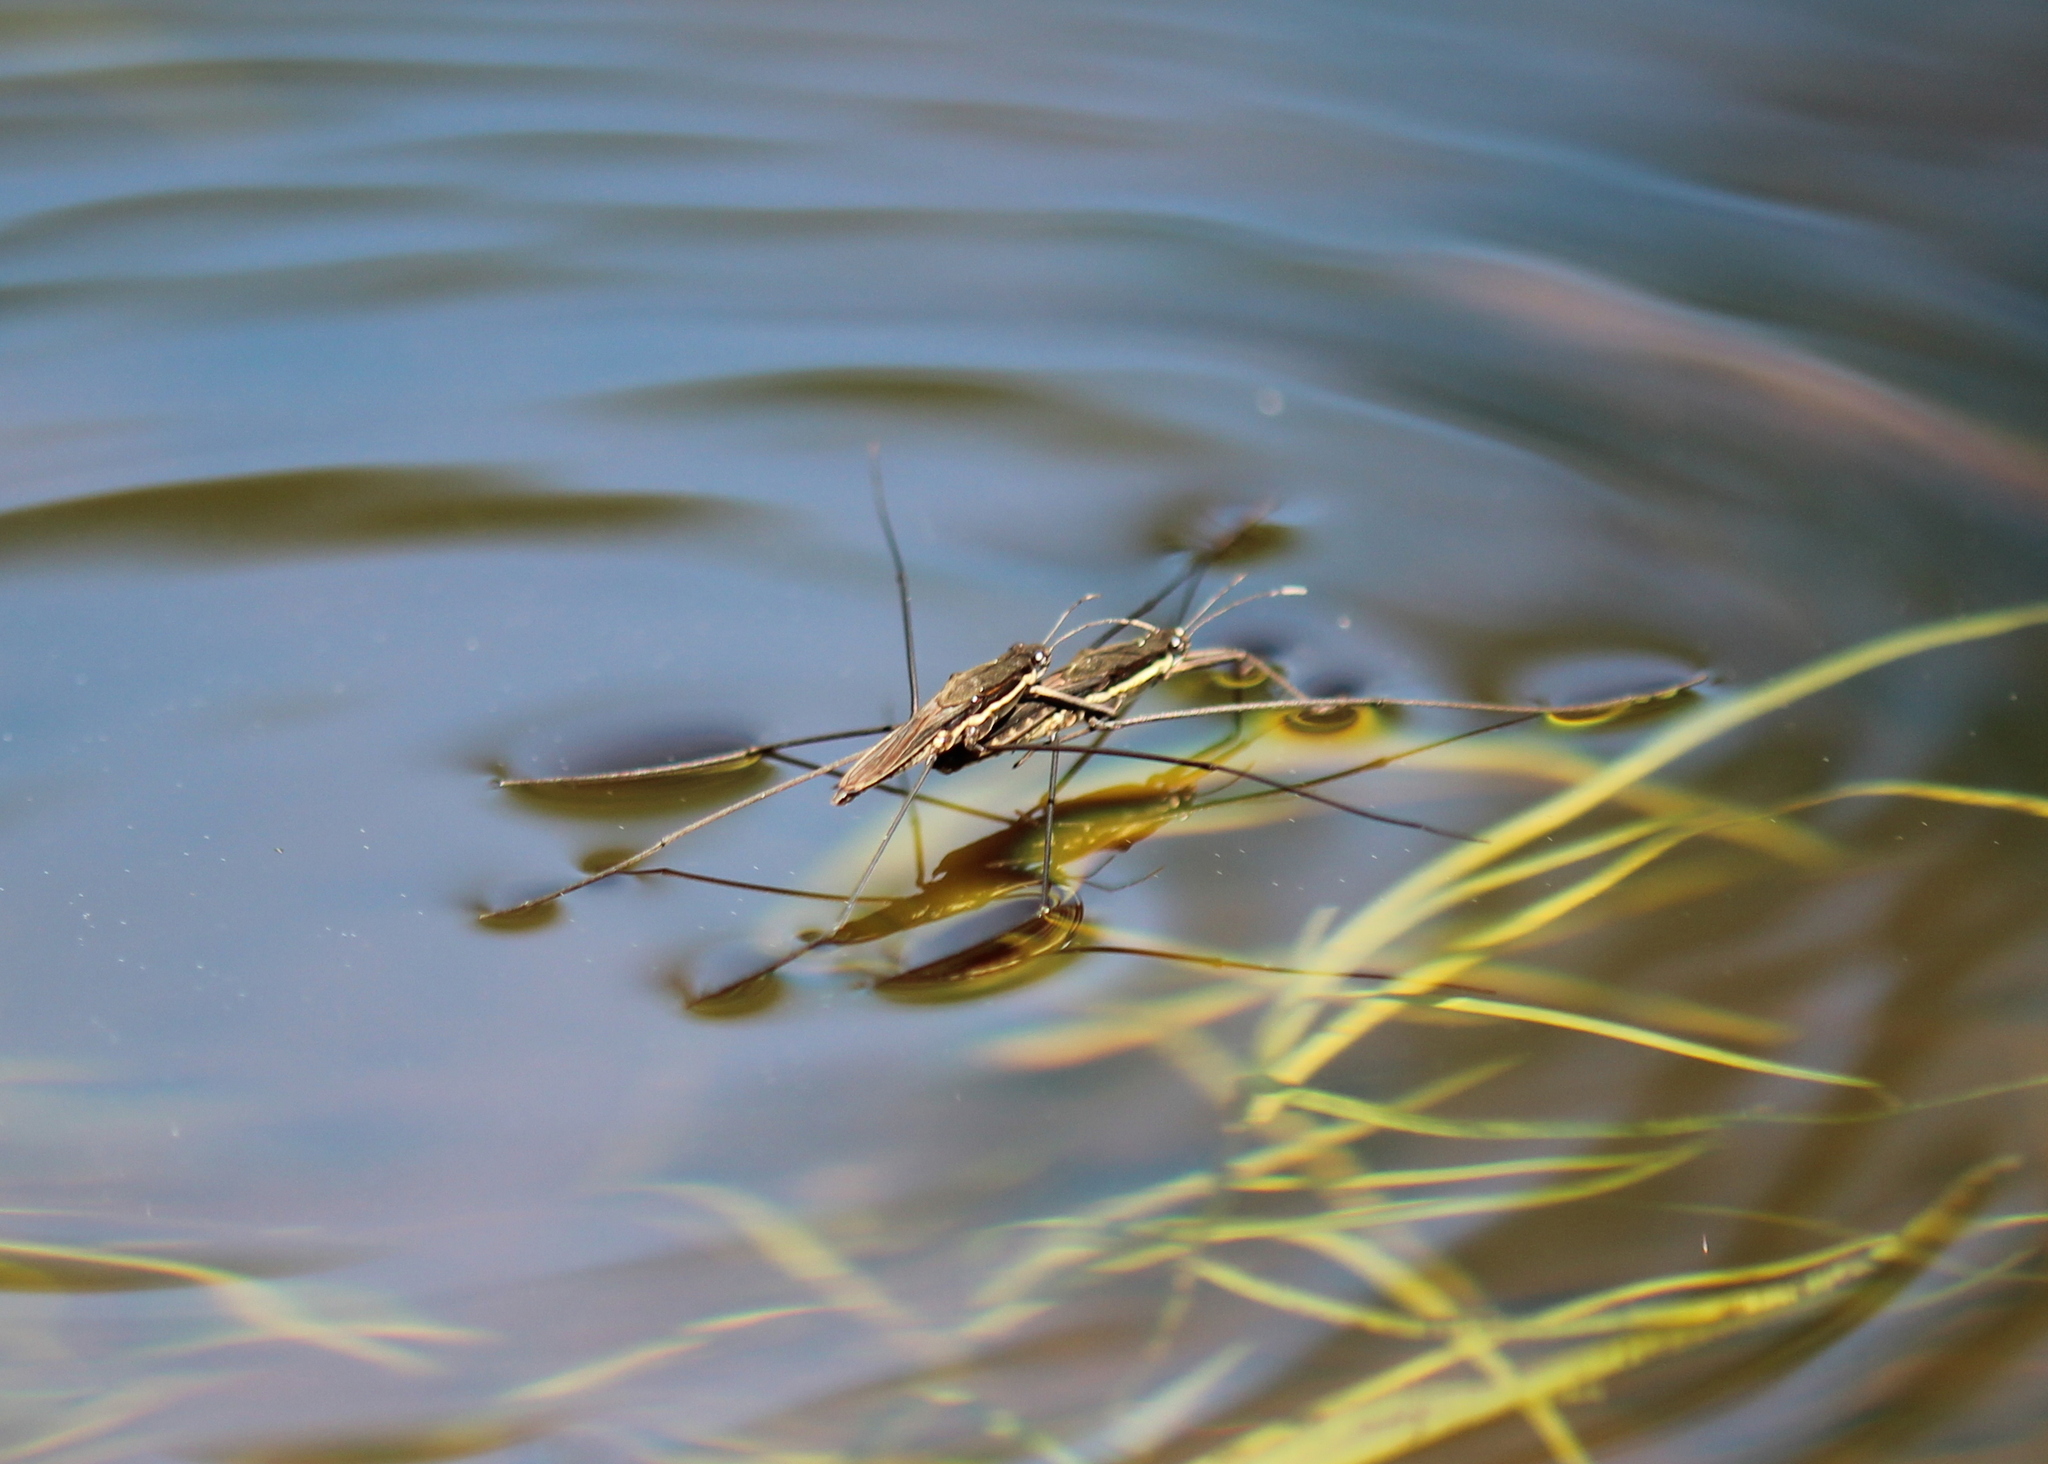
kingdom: Animalia
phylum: Arthropoda
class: Insecta
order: Hemiptera
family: Gerridae
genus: Aquarius
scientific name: Aquarius conformis
